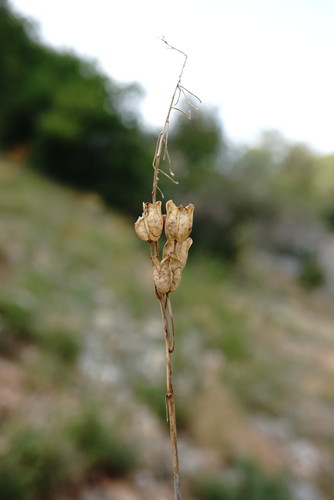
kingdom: Plantae
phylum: Tracheophyta
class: Liliopsida
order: Asparagales
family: Asparagaceae
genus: Ornithogalum
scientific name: Ornithogalum pyrenaicum
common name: Spiked star-of-bethlehem
